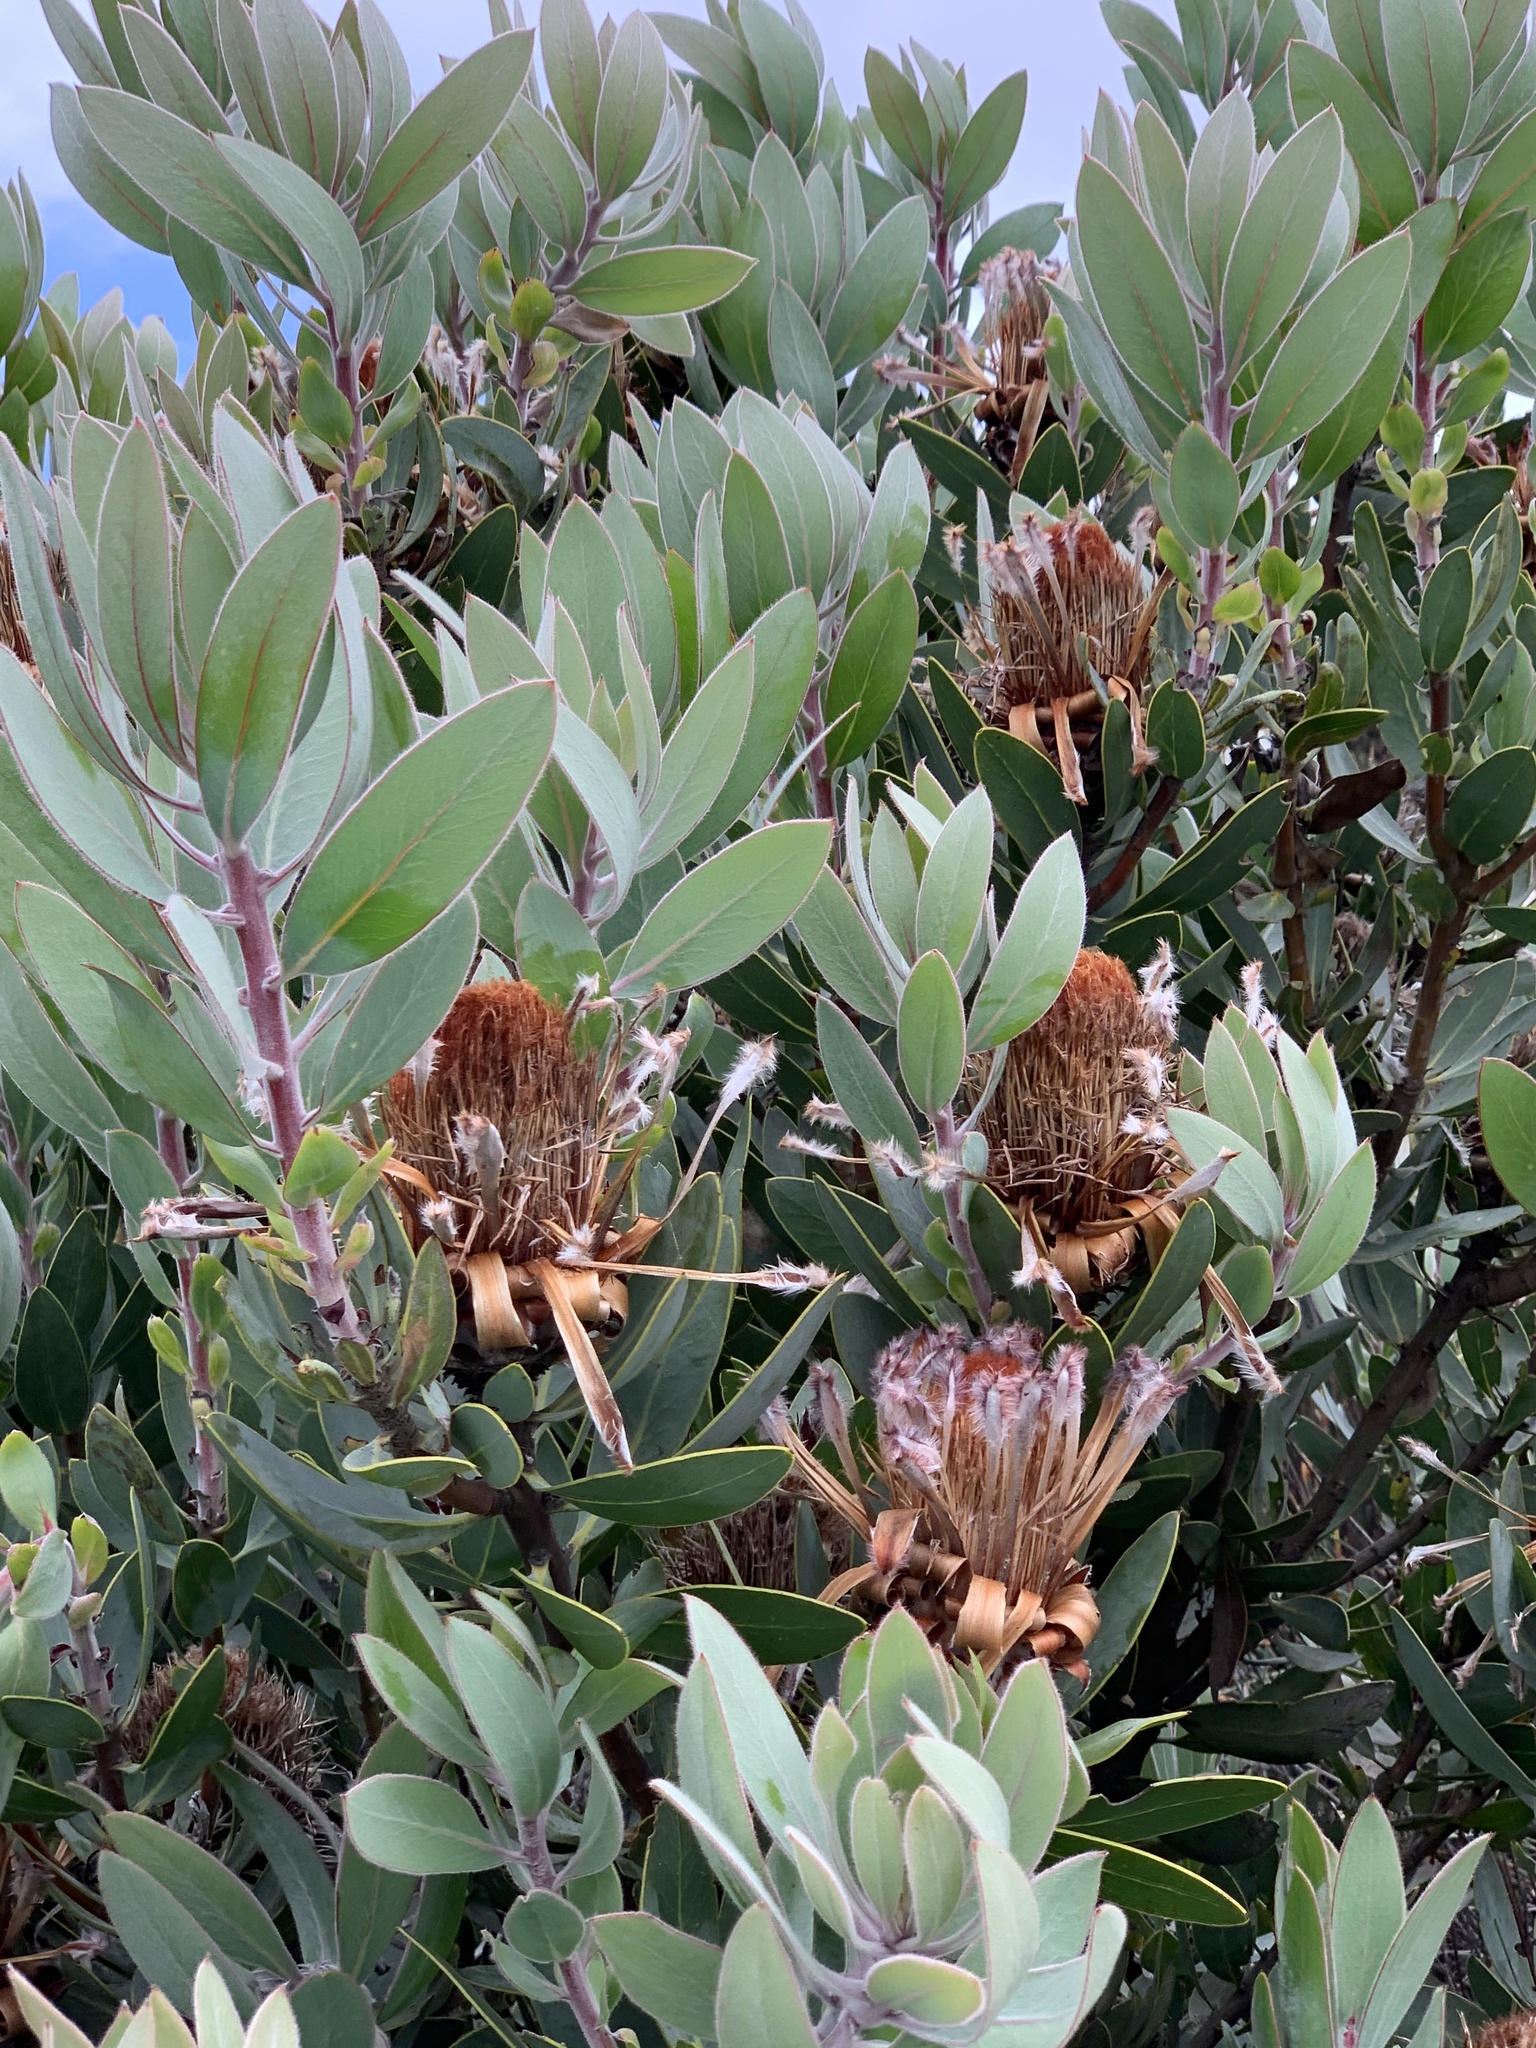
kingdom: Plantae
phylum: Tracheophyta
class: Magnoliopsida
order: Proteales
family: Proteaceae
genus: Protea
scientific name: Protea laurifolia
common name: Grey-leaf sugarbsh
